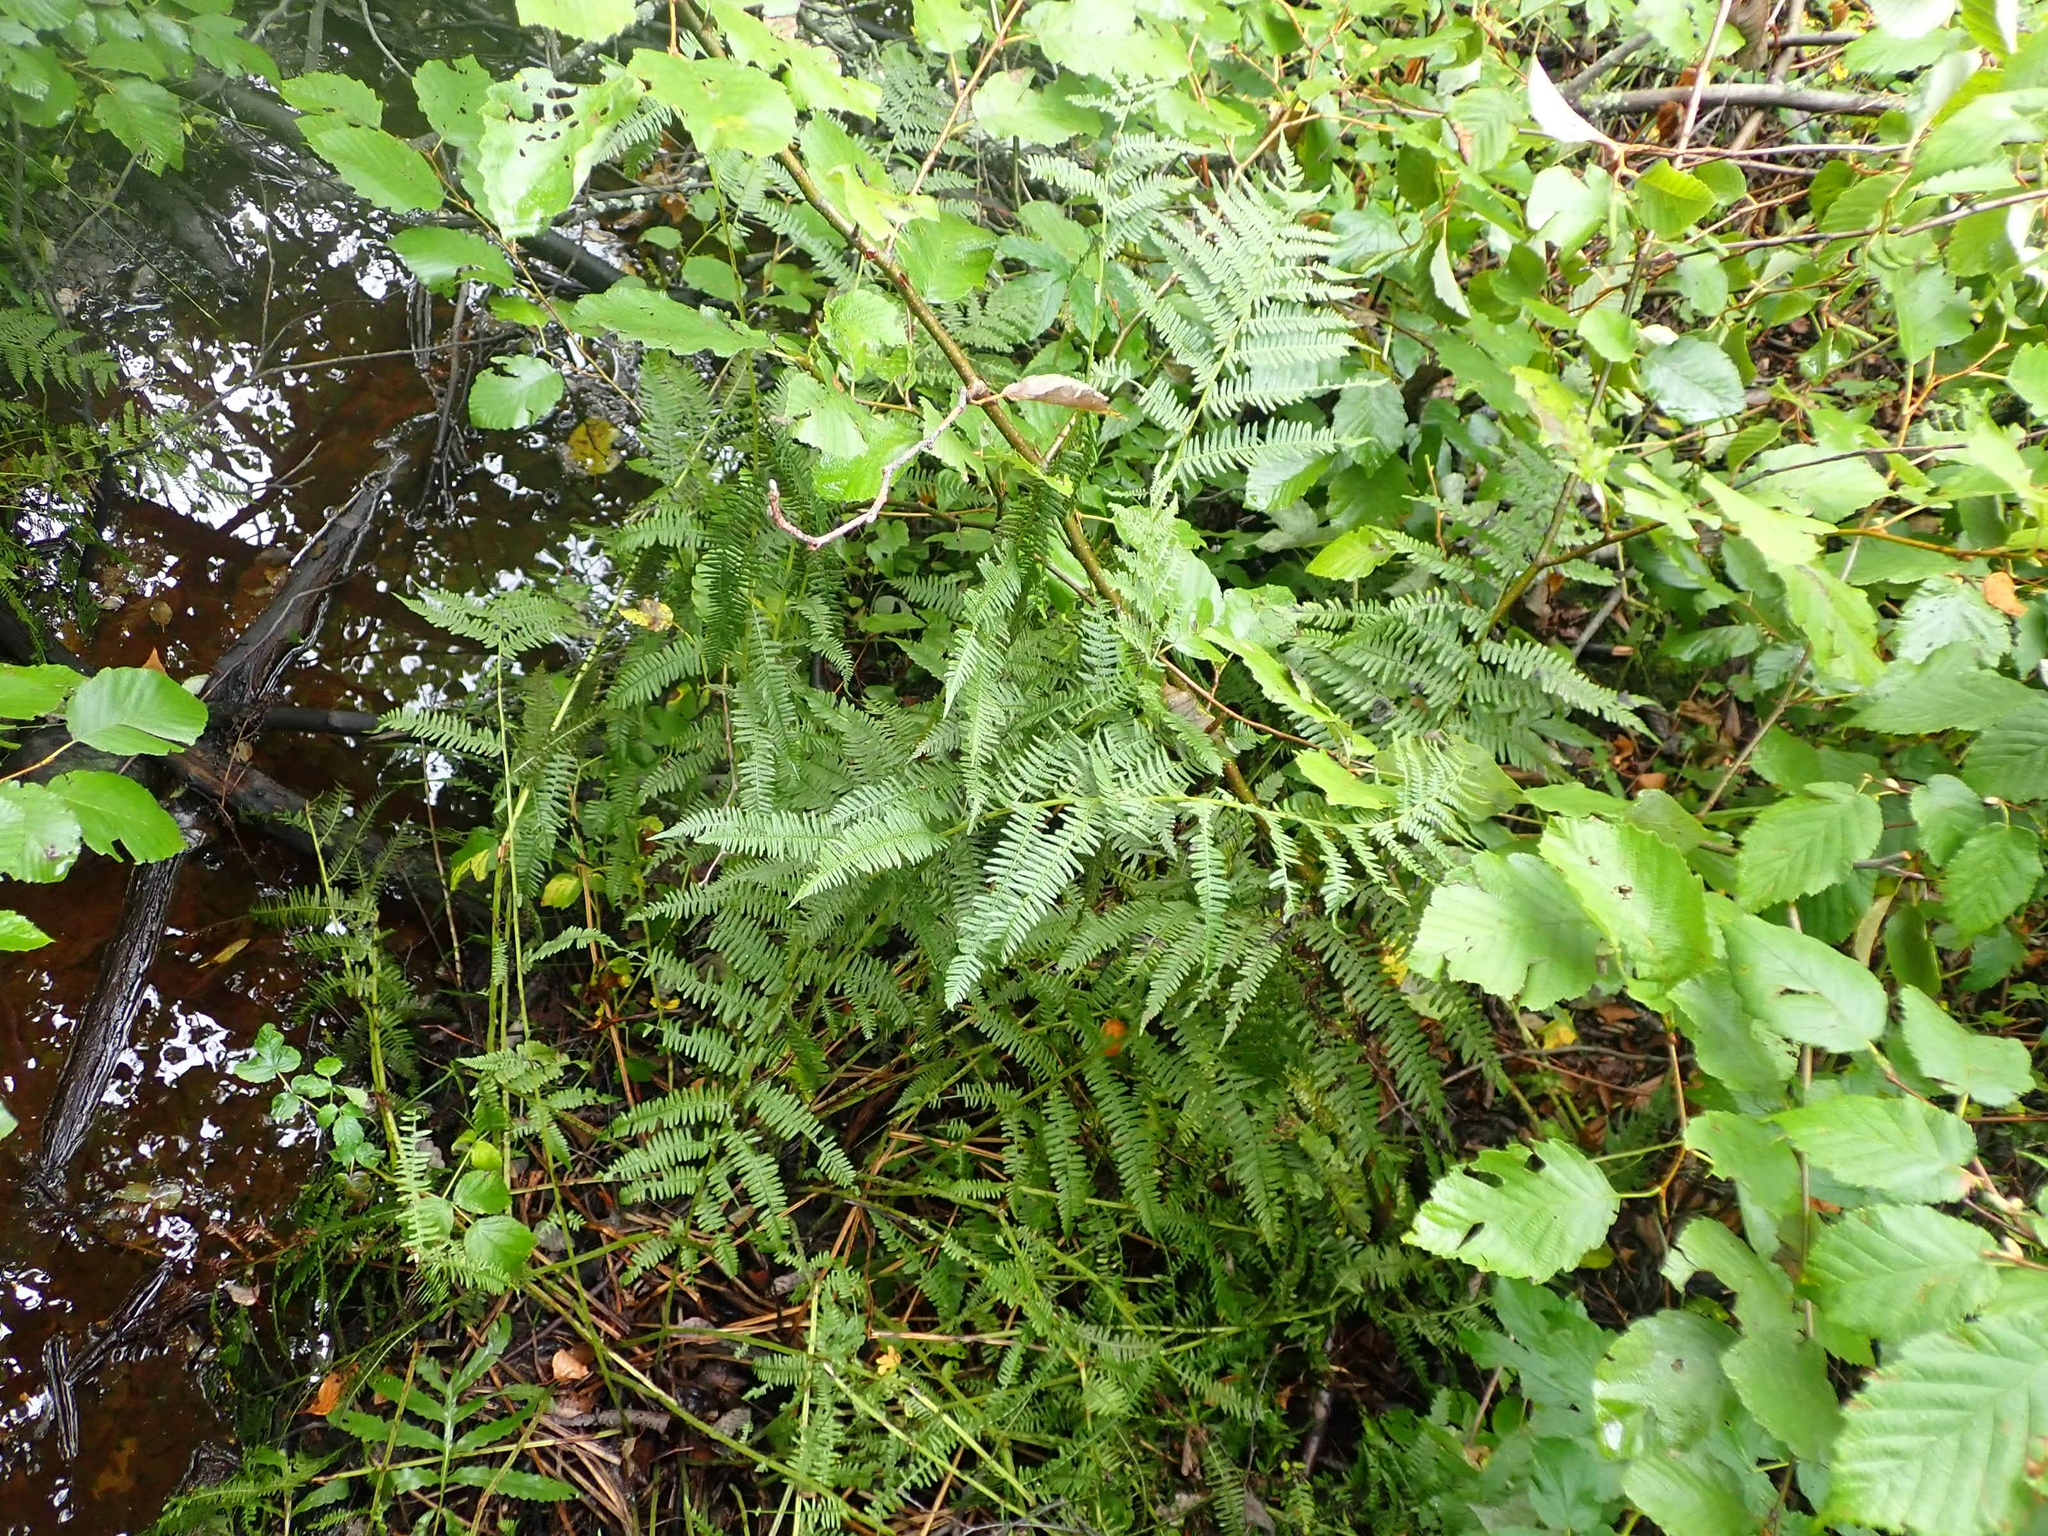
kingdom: Plantae
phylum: Tracheophyta
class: Polypodiopsida
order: Polypodiales
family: Thelypteridaceae
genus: Thelypteris
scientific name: Thelypteris palustris
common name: Marsh fern
